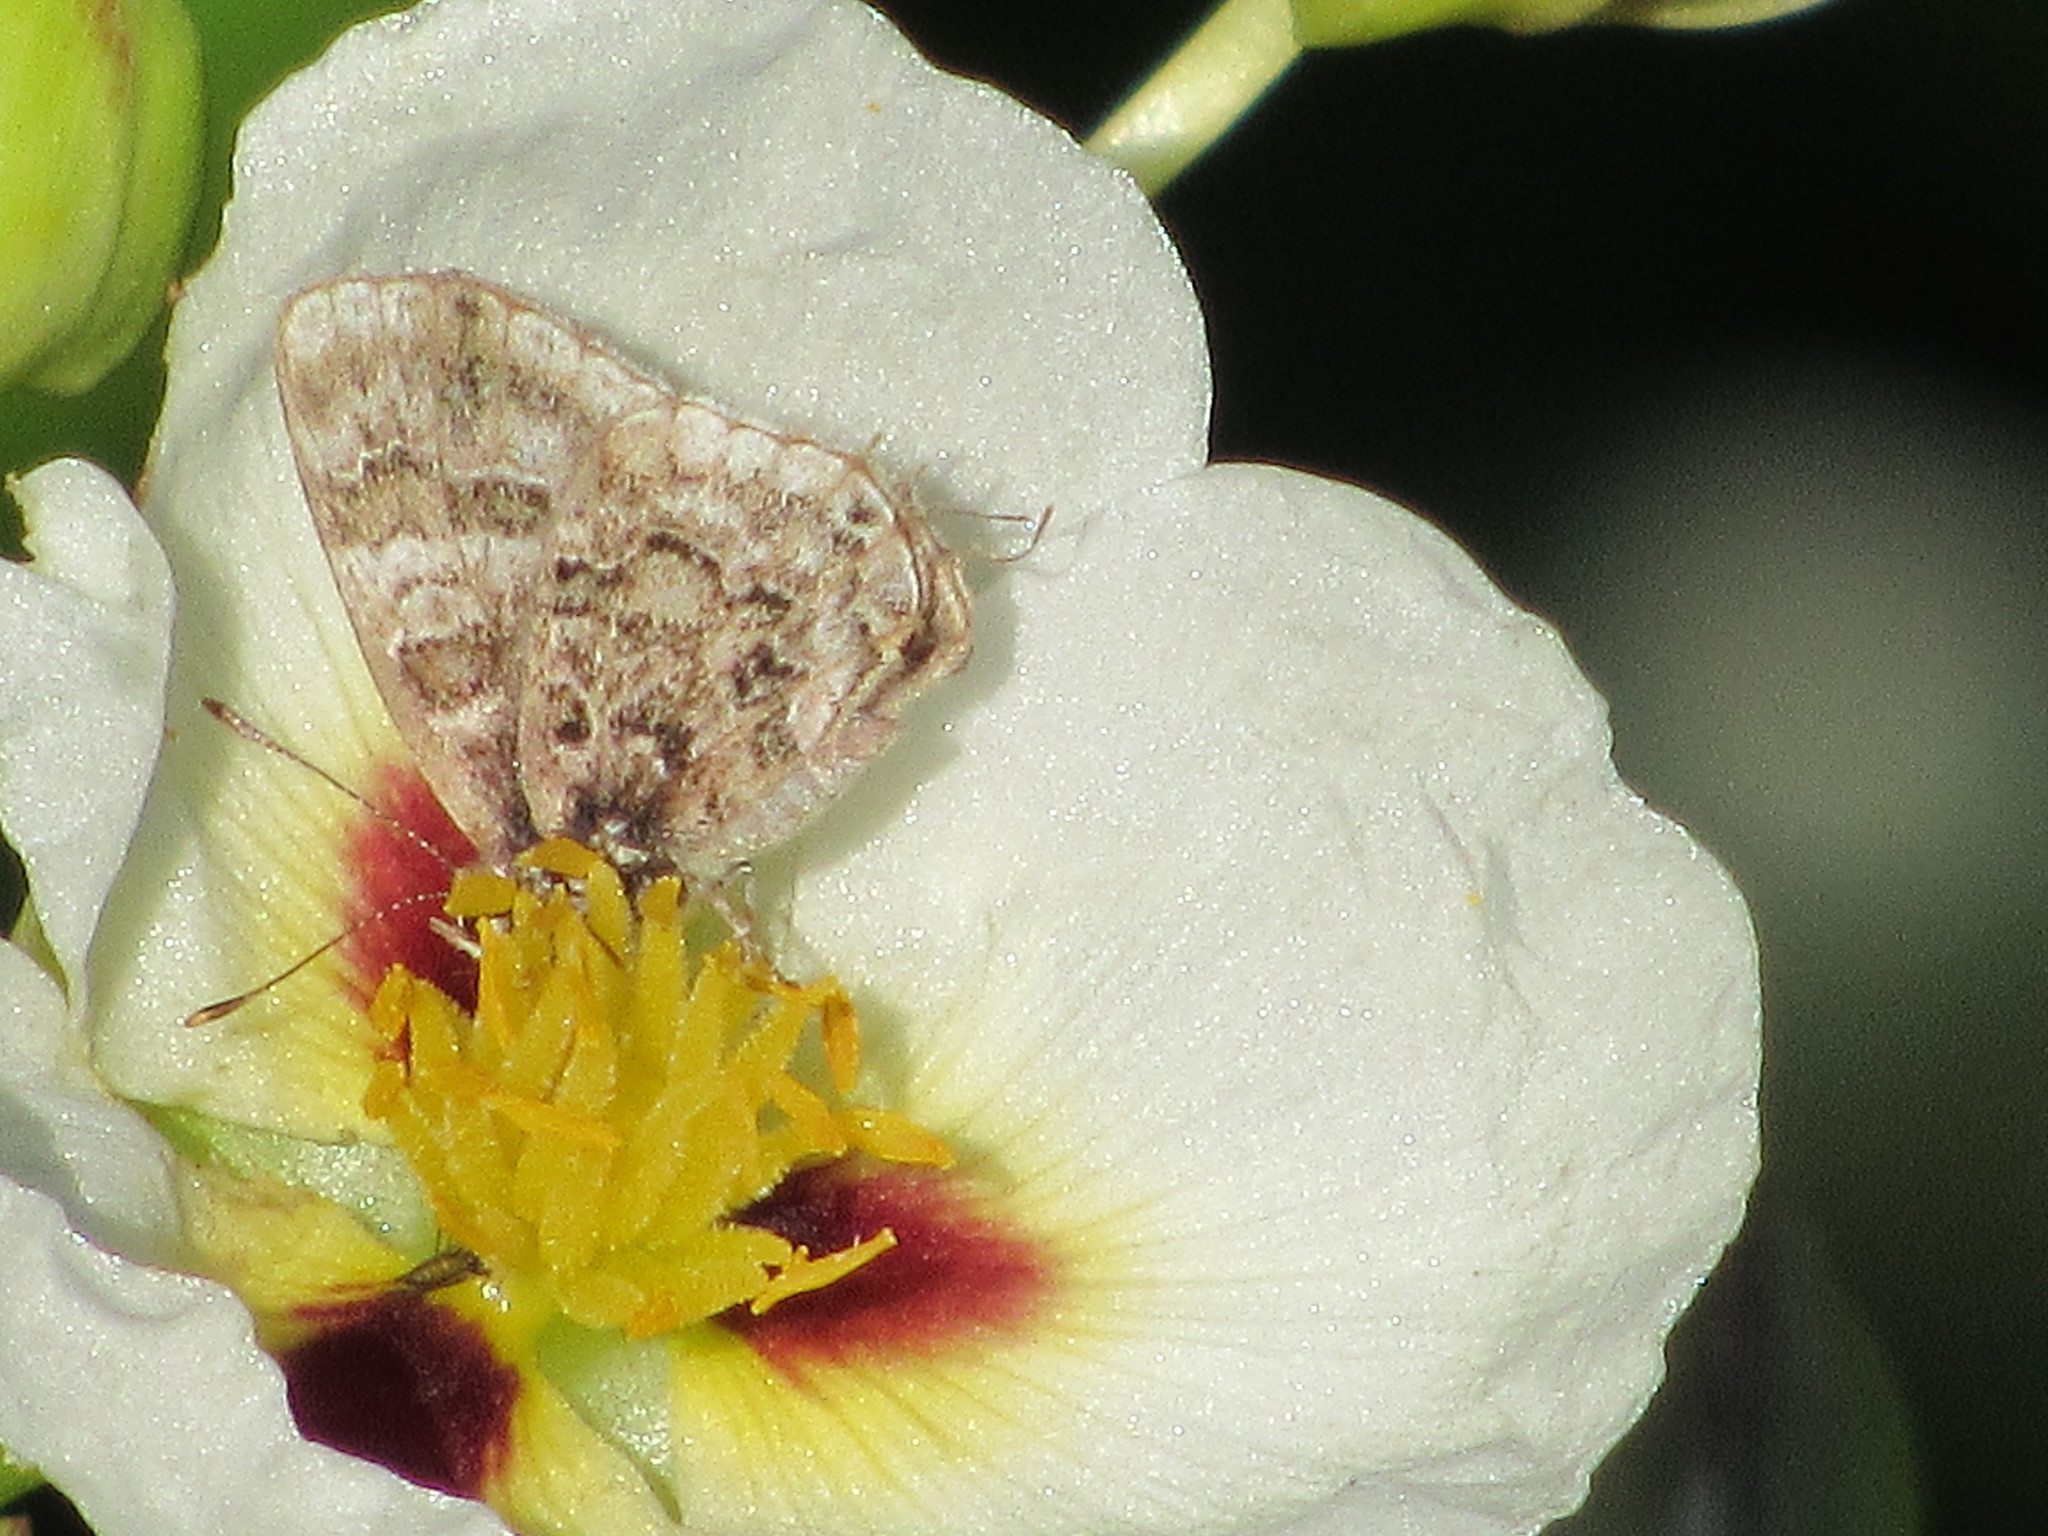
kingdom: Animalia
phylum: Arthropoda
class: Insecta
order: Lepidoptera
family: Lycaenidae
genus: Aubergina
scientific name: Aubergina vanessoides
